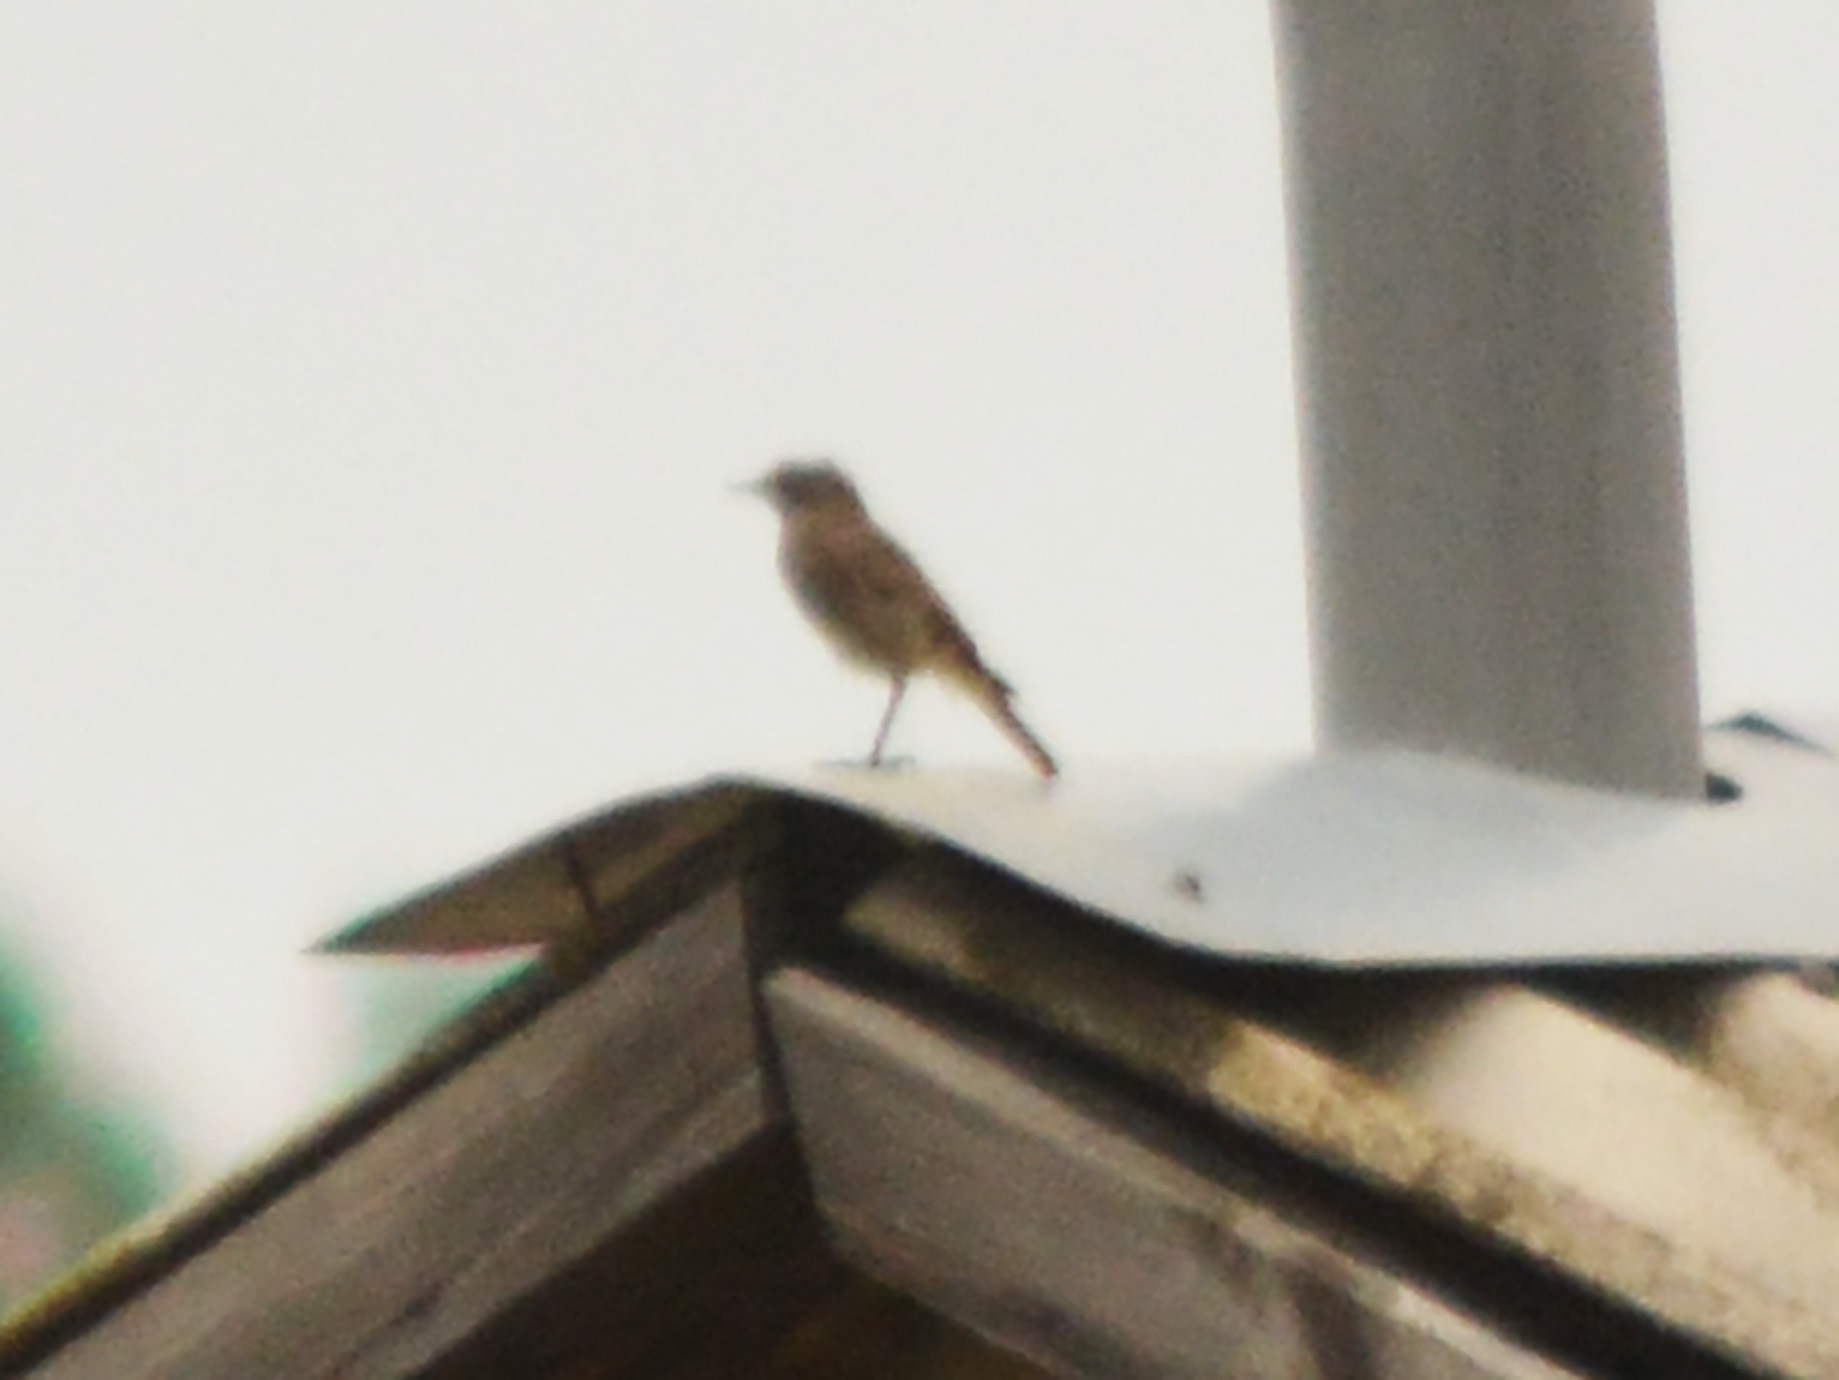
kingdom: Animalia
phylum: Chordata
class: Aves
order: Passeriformes
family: Muscicapidae
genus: Phoenicurus
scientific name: Phoenicurus ochruros
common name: Black redstart
